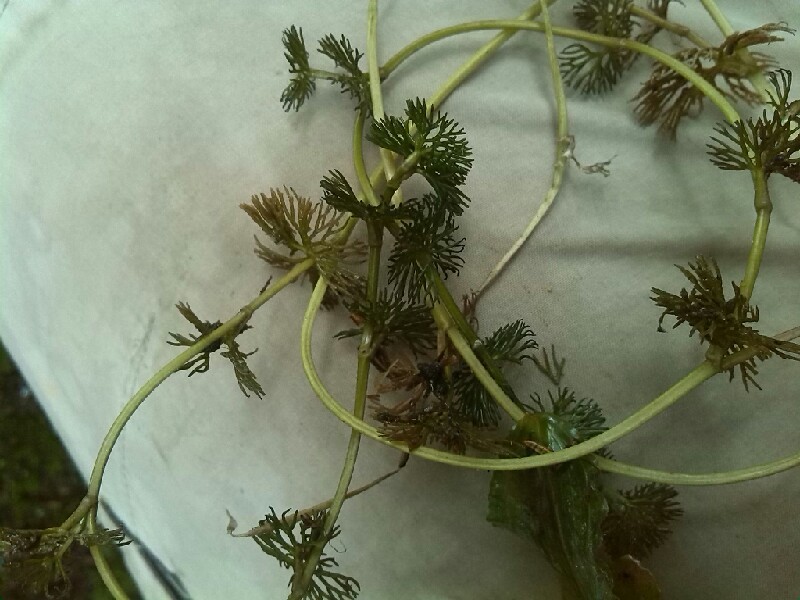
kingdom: Plantae
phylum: Tracheophyta
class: Magnoliopsida
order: Ranunculales
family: Ranunculaceae
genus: Ranunculus
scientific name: Ranunculus circinatus
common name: Fan-leaved water-crowfoot
